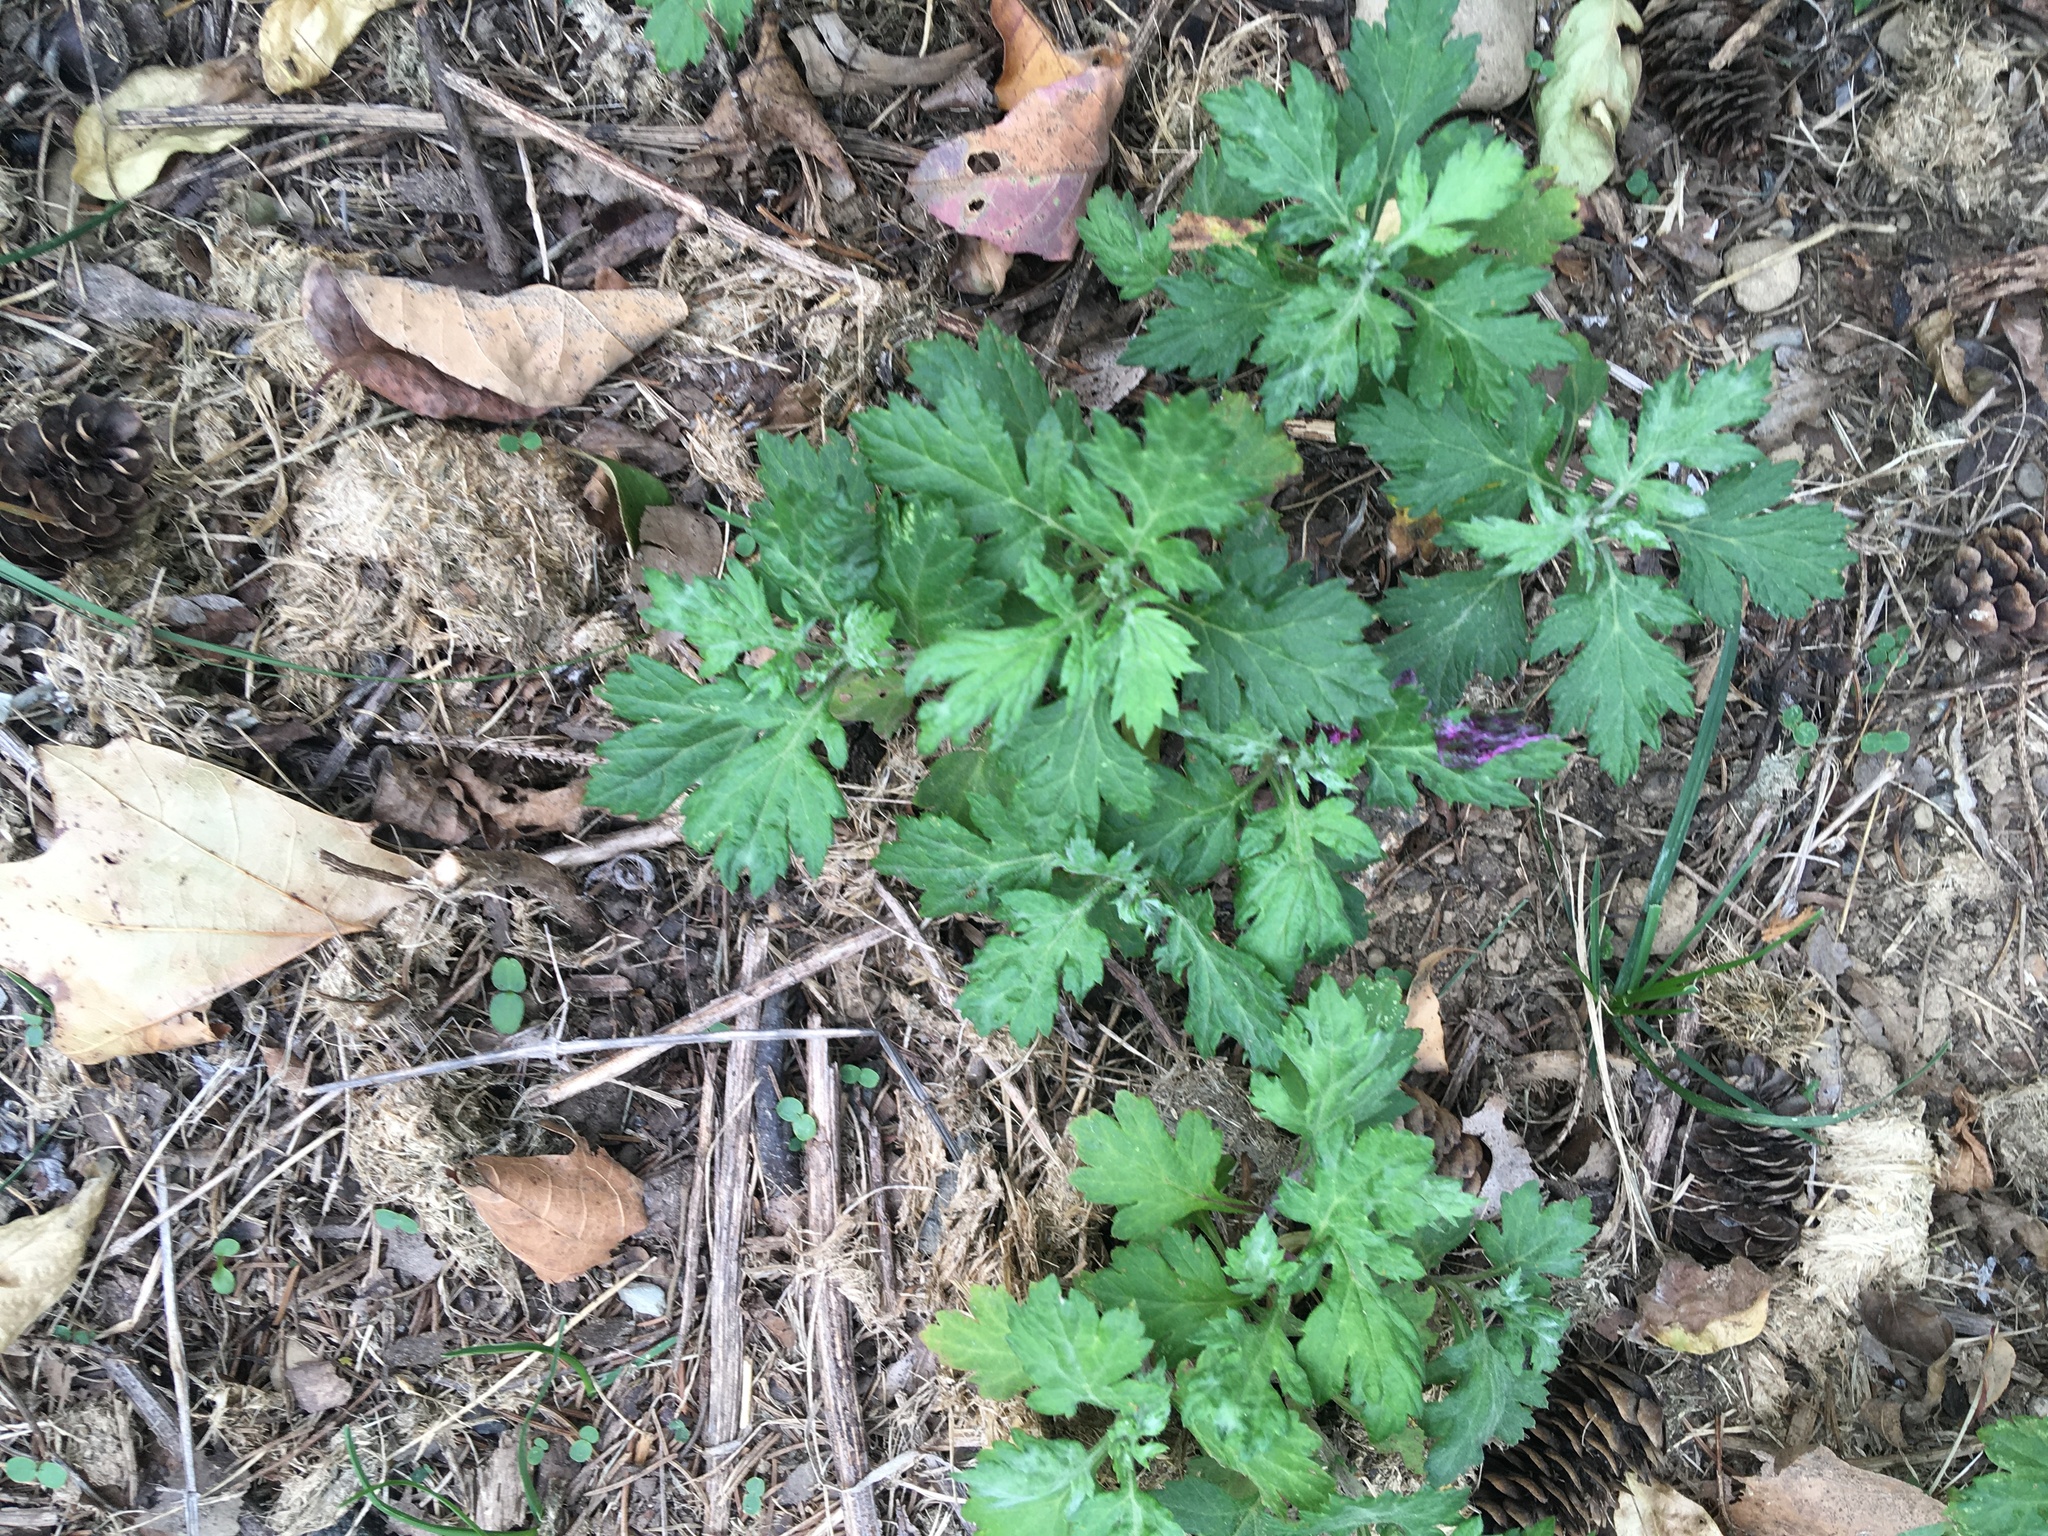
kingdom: Plantae
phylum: Tracheophyta
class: Magnoliopsida
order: Asterales
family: Asteraceae
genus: Artemisia
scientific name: Artemisia vulgaris
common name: Mugwort
